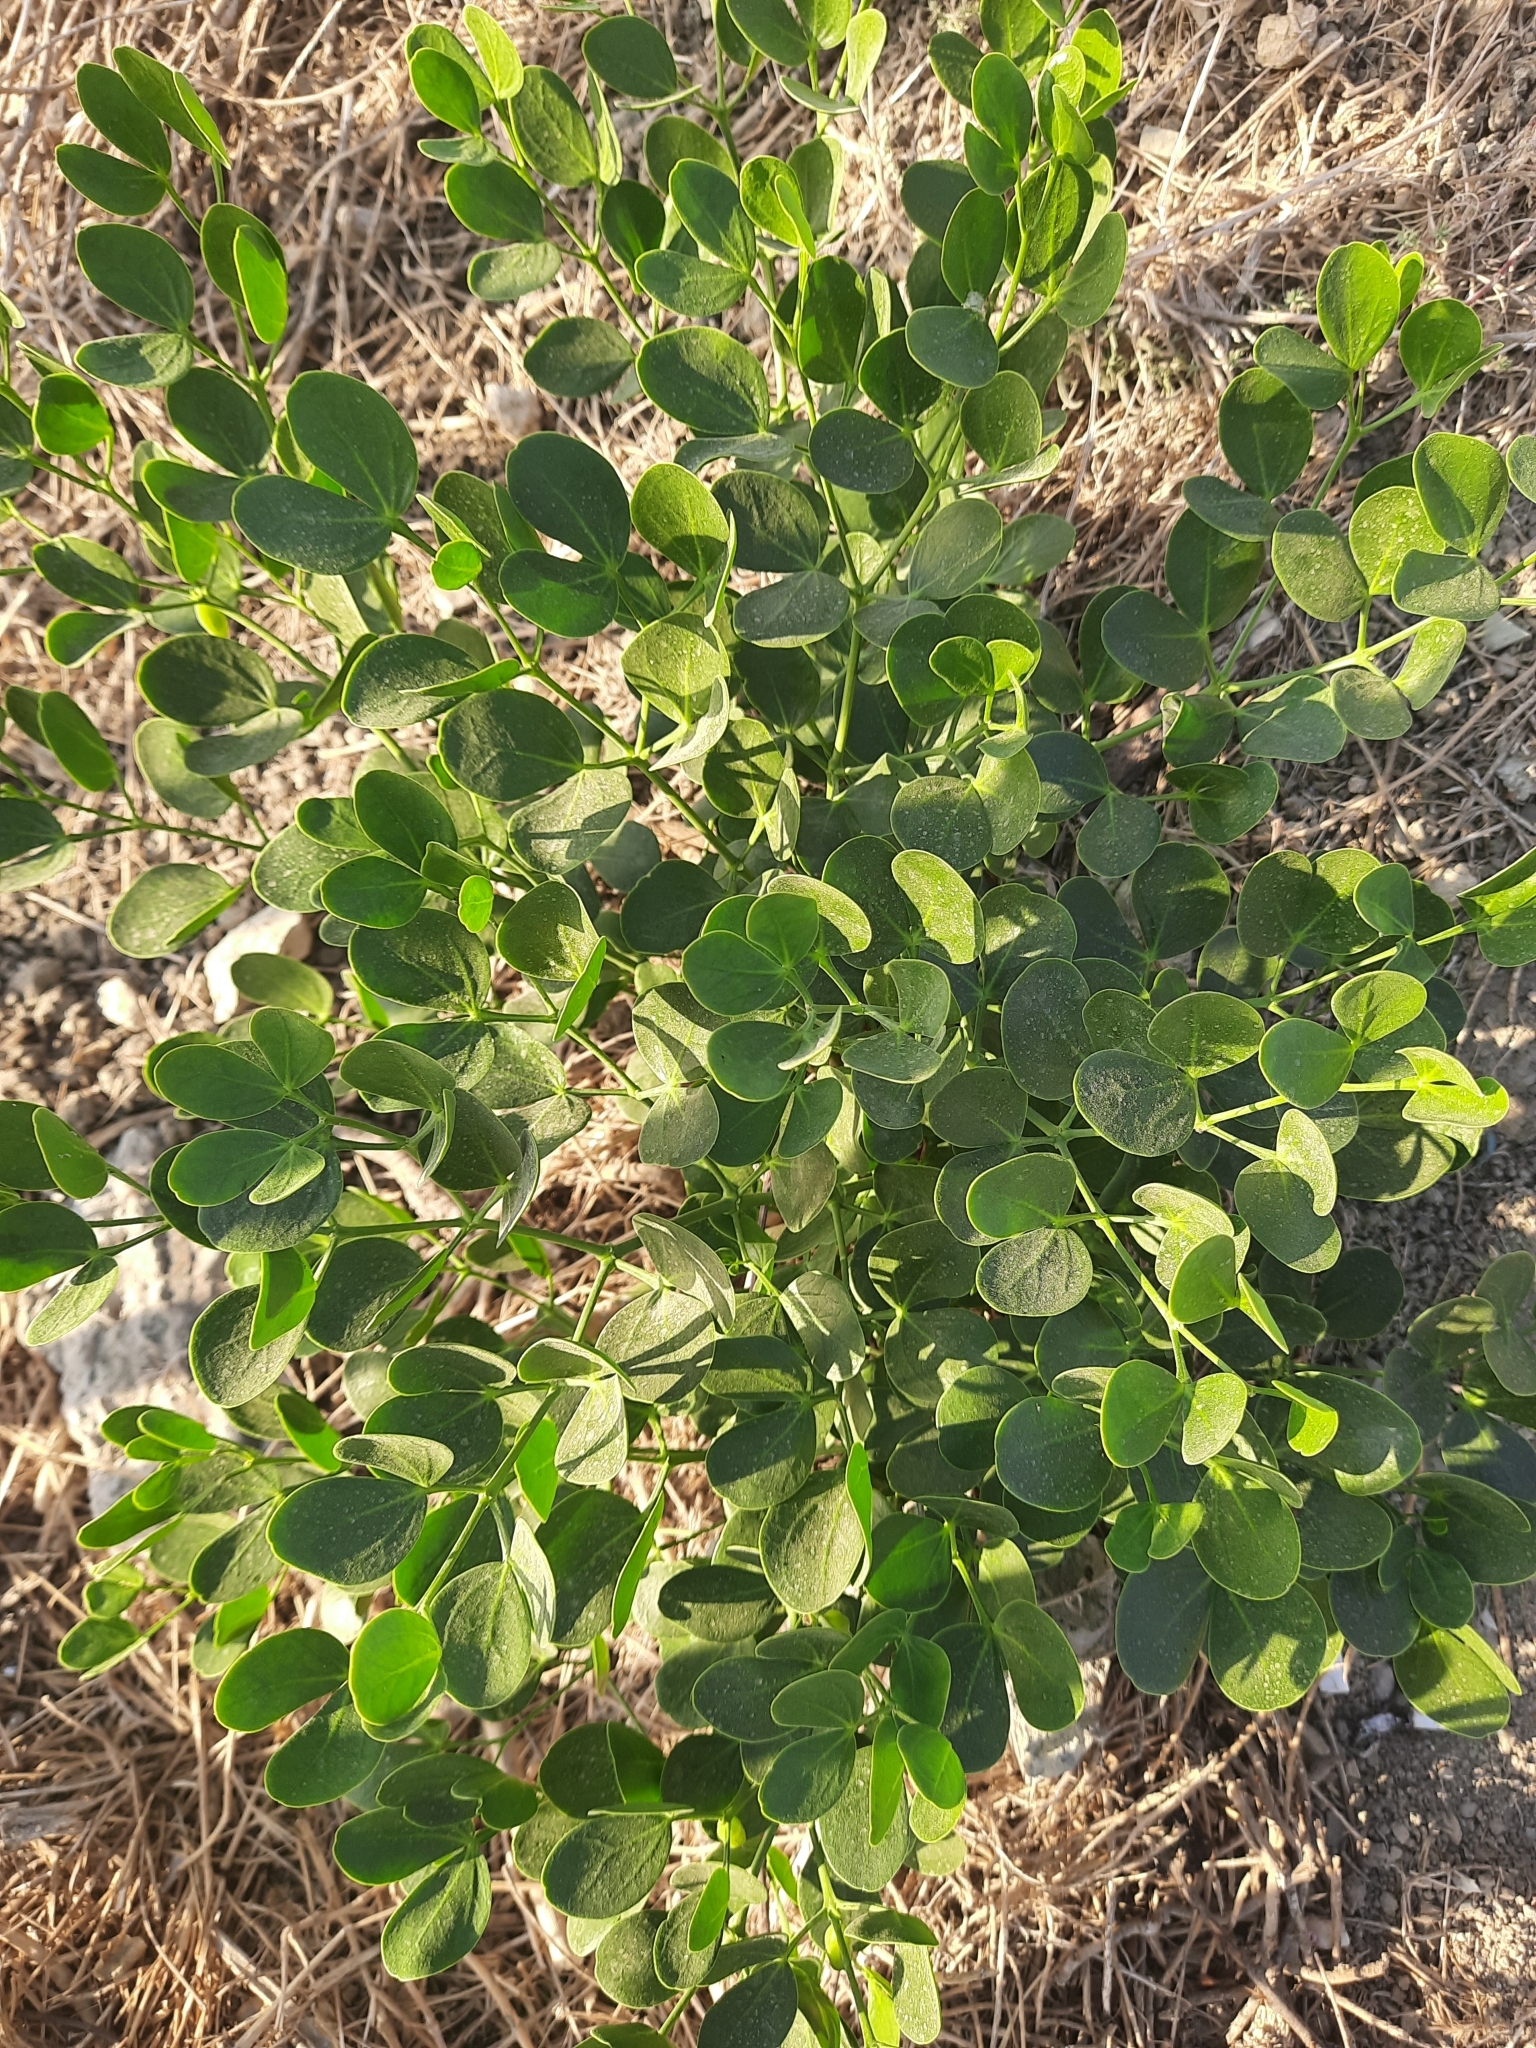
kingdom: Plantae
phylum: Tracheophyta
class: Magnoliopsida
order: Zygophyllales
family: Zygophyllaceae
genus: Zygophyllum
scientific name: Zygophyllum fabago
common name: Syrian beancaper
